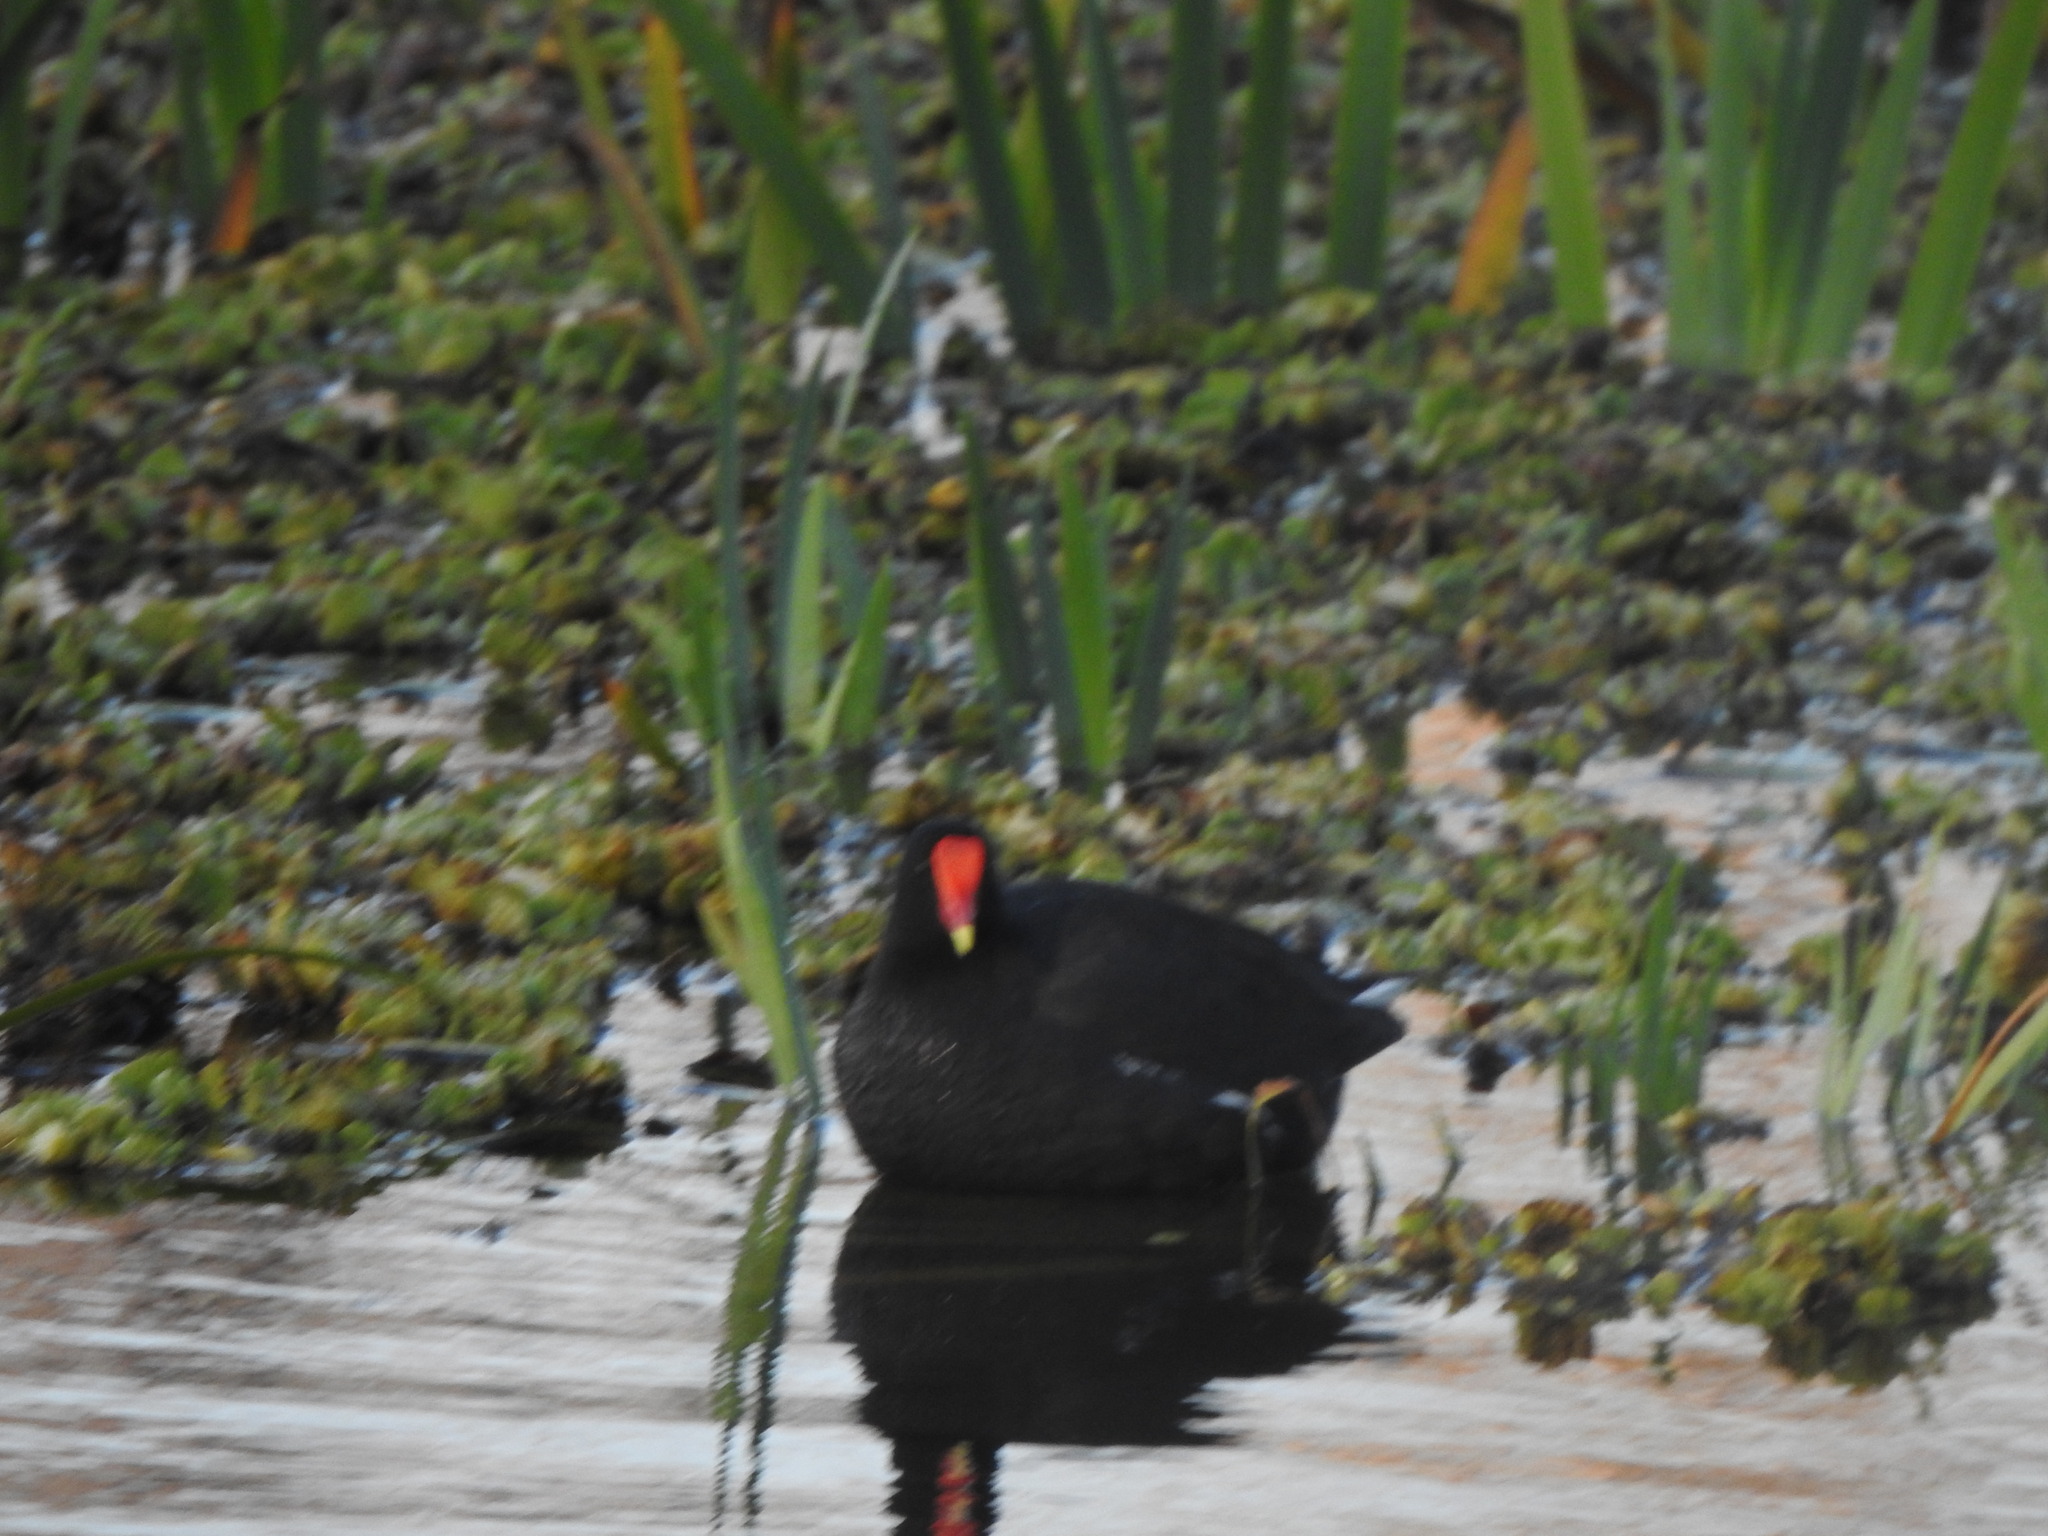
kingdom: Animalia
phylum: Chordata
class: Aves
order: Gruiformes
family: Rallidae
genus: Gallinula
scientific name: Gallinula chloropus
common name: Common moorhen
